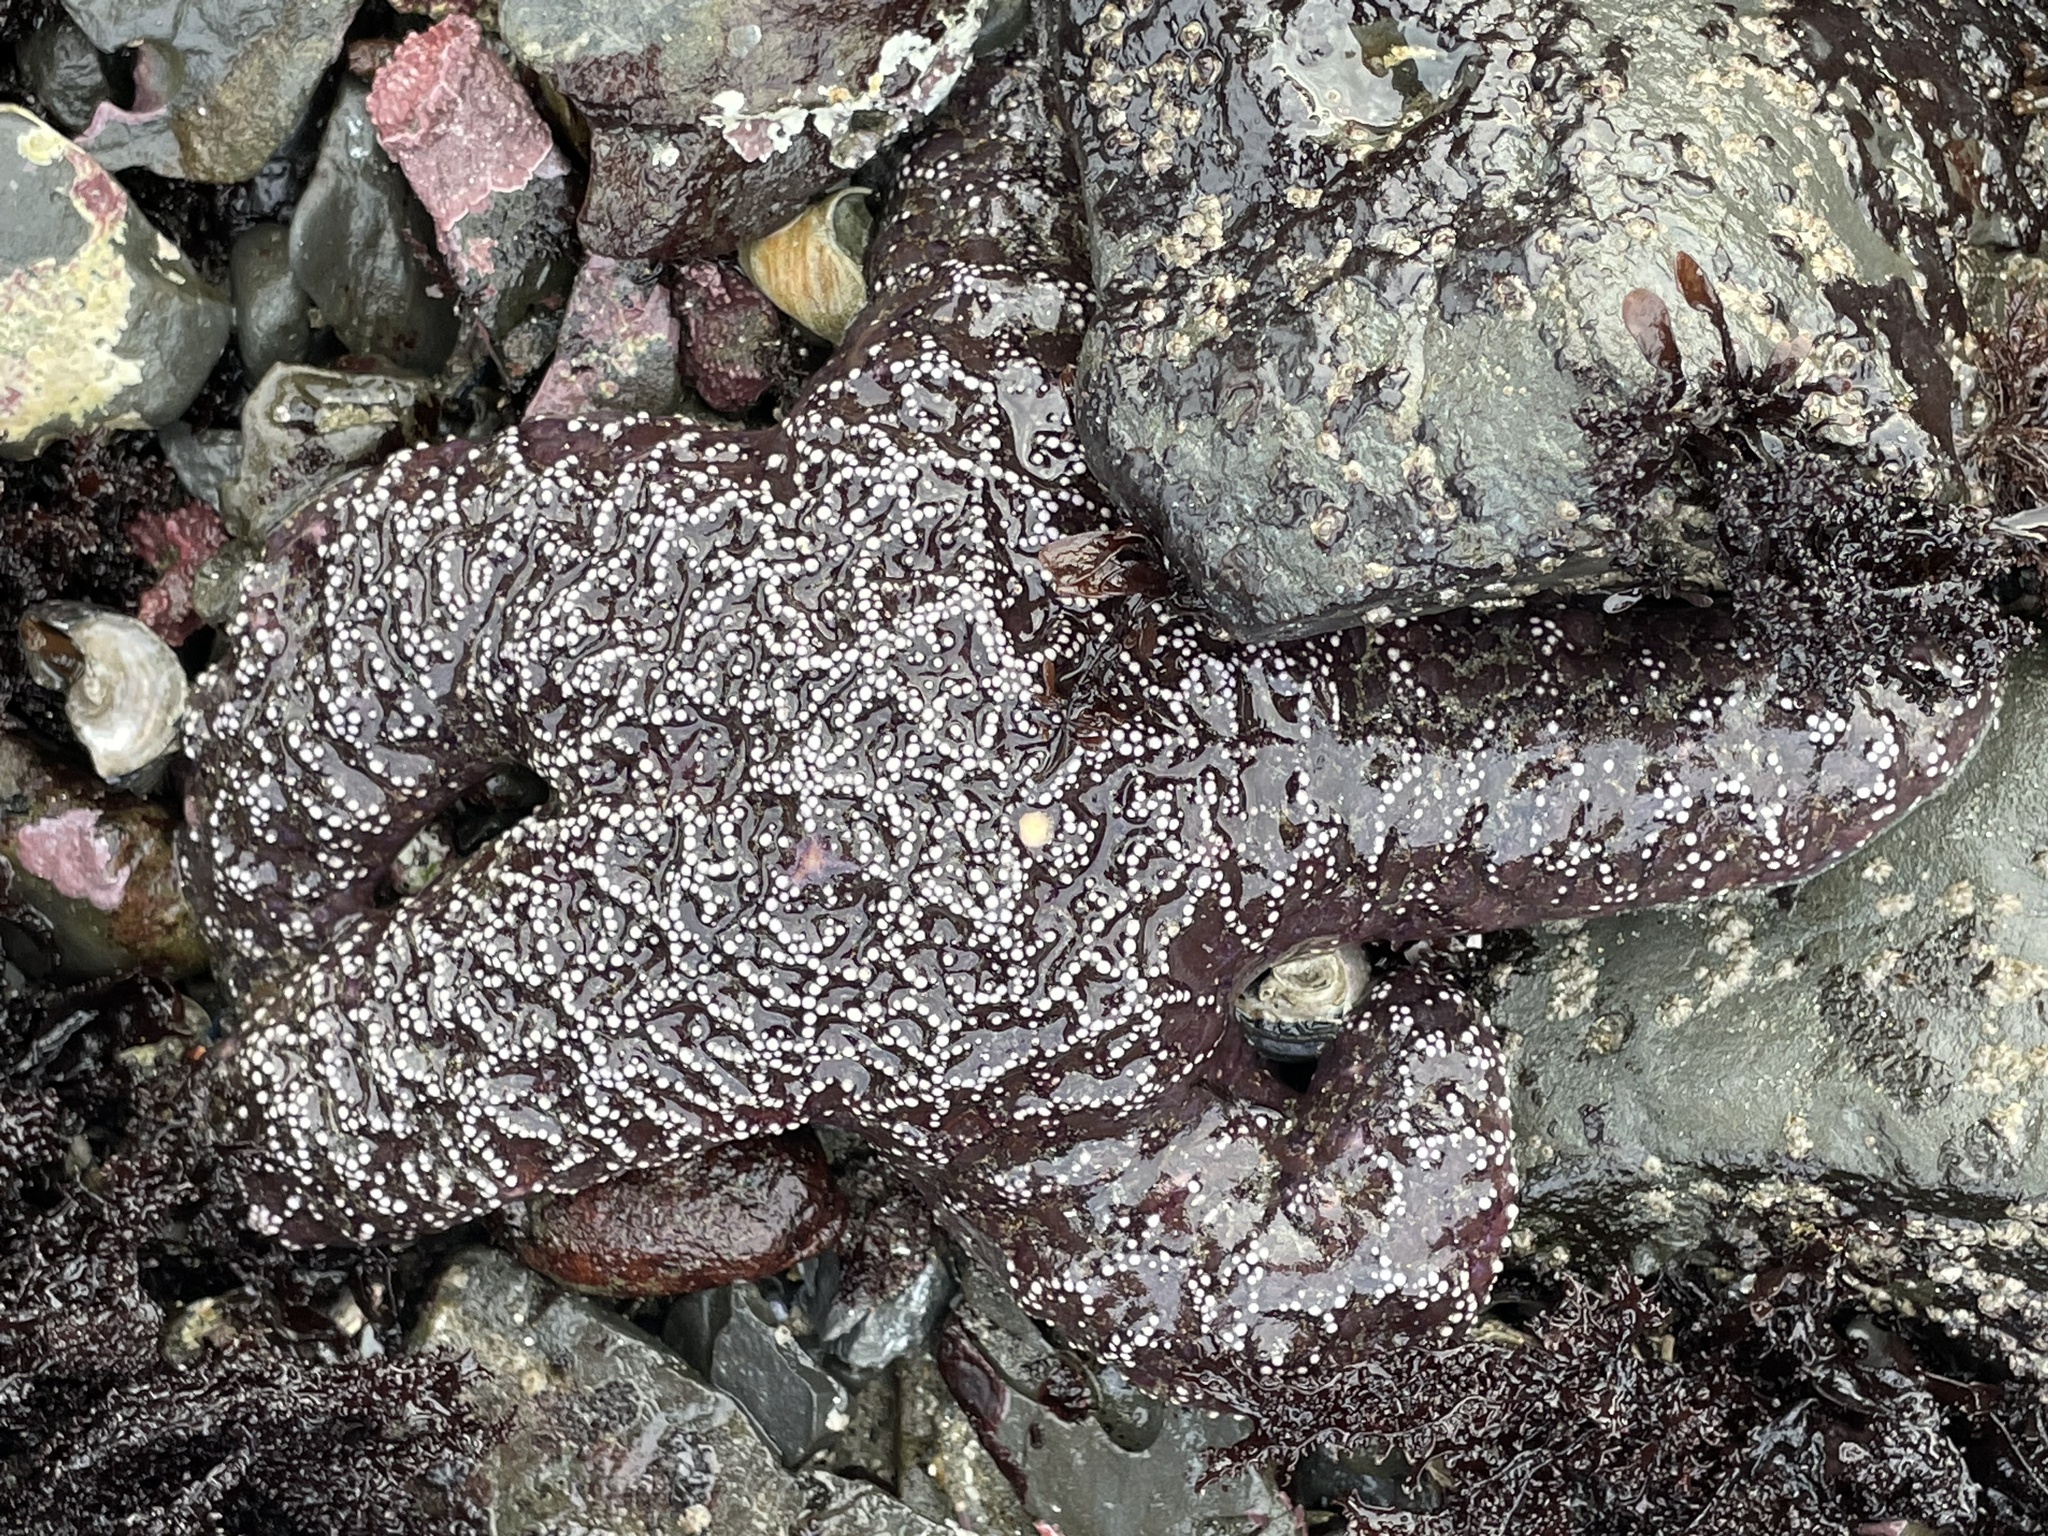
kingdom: Animalia
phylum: Echinodermata
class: Asteroidea
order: Forcipulatida
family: Asteriidae
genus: Pisaster
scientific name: Pisaster ochraceus
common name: Ochre stars
